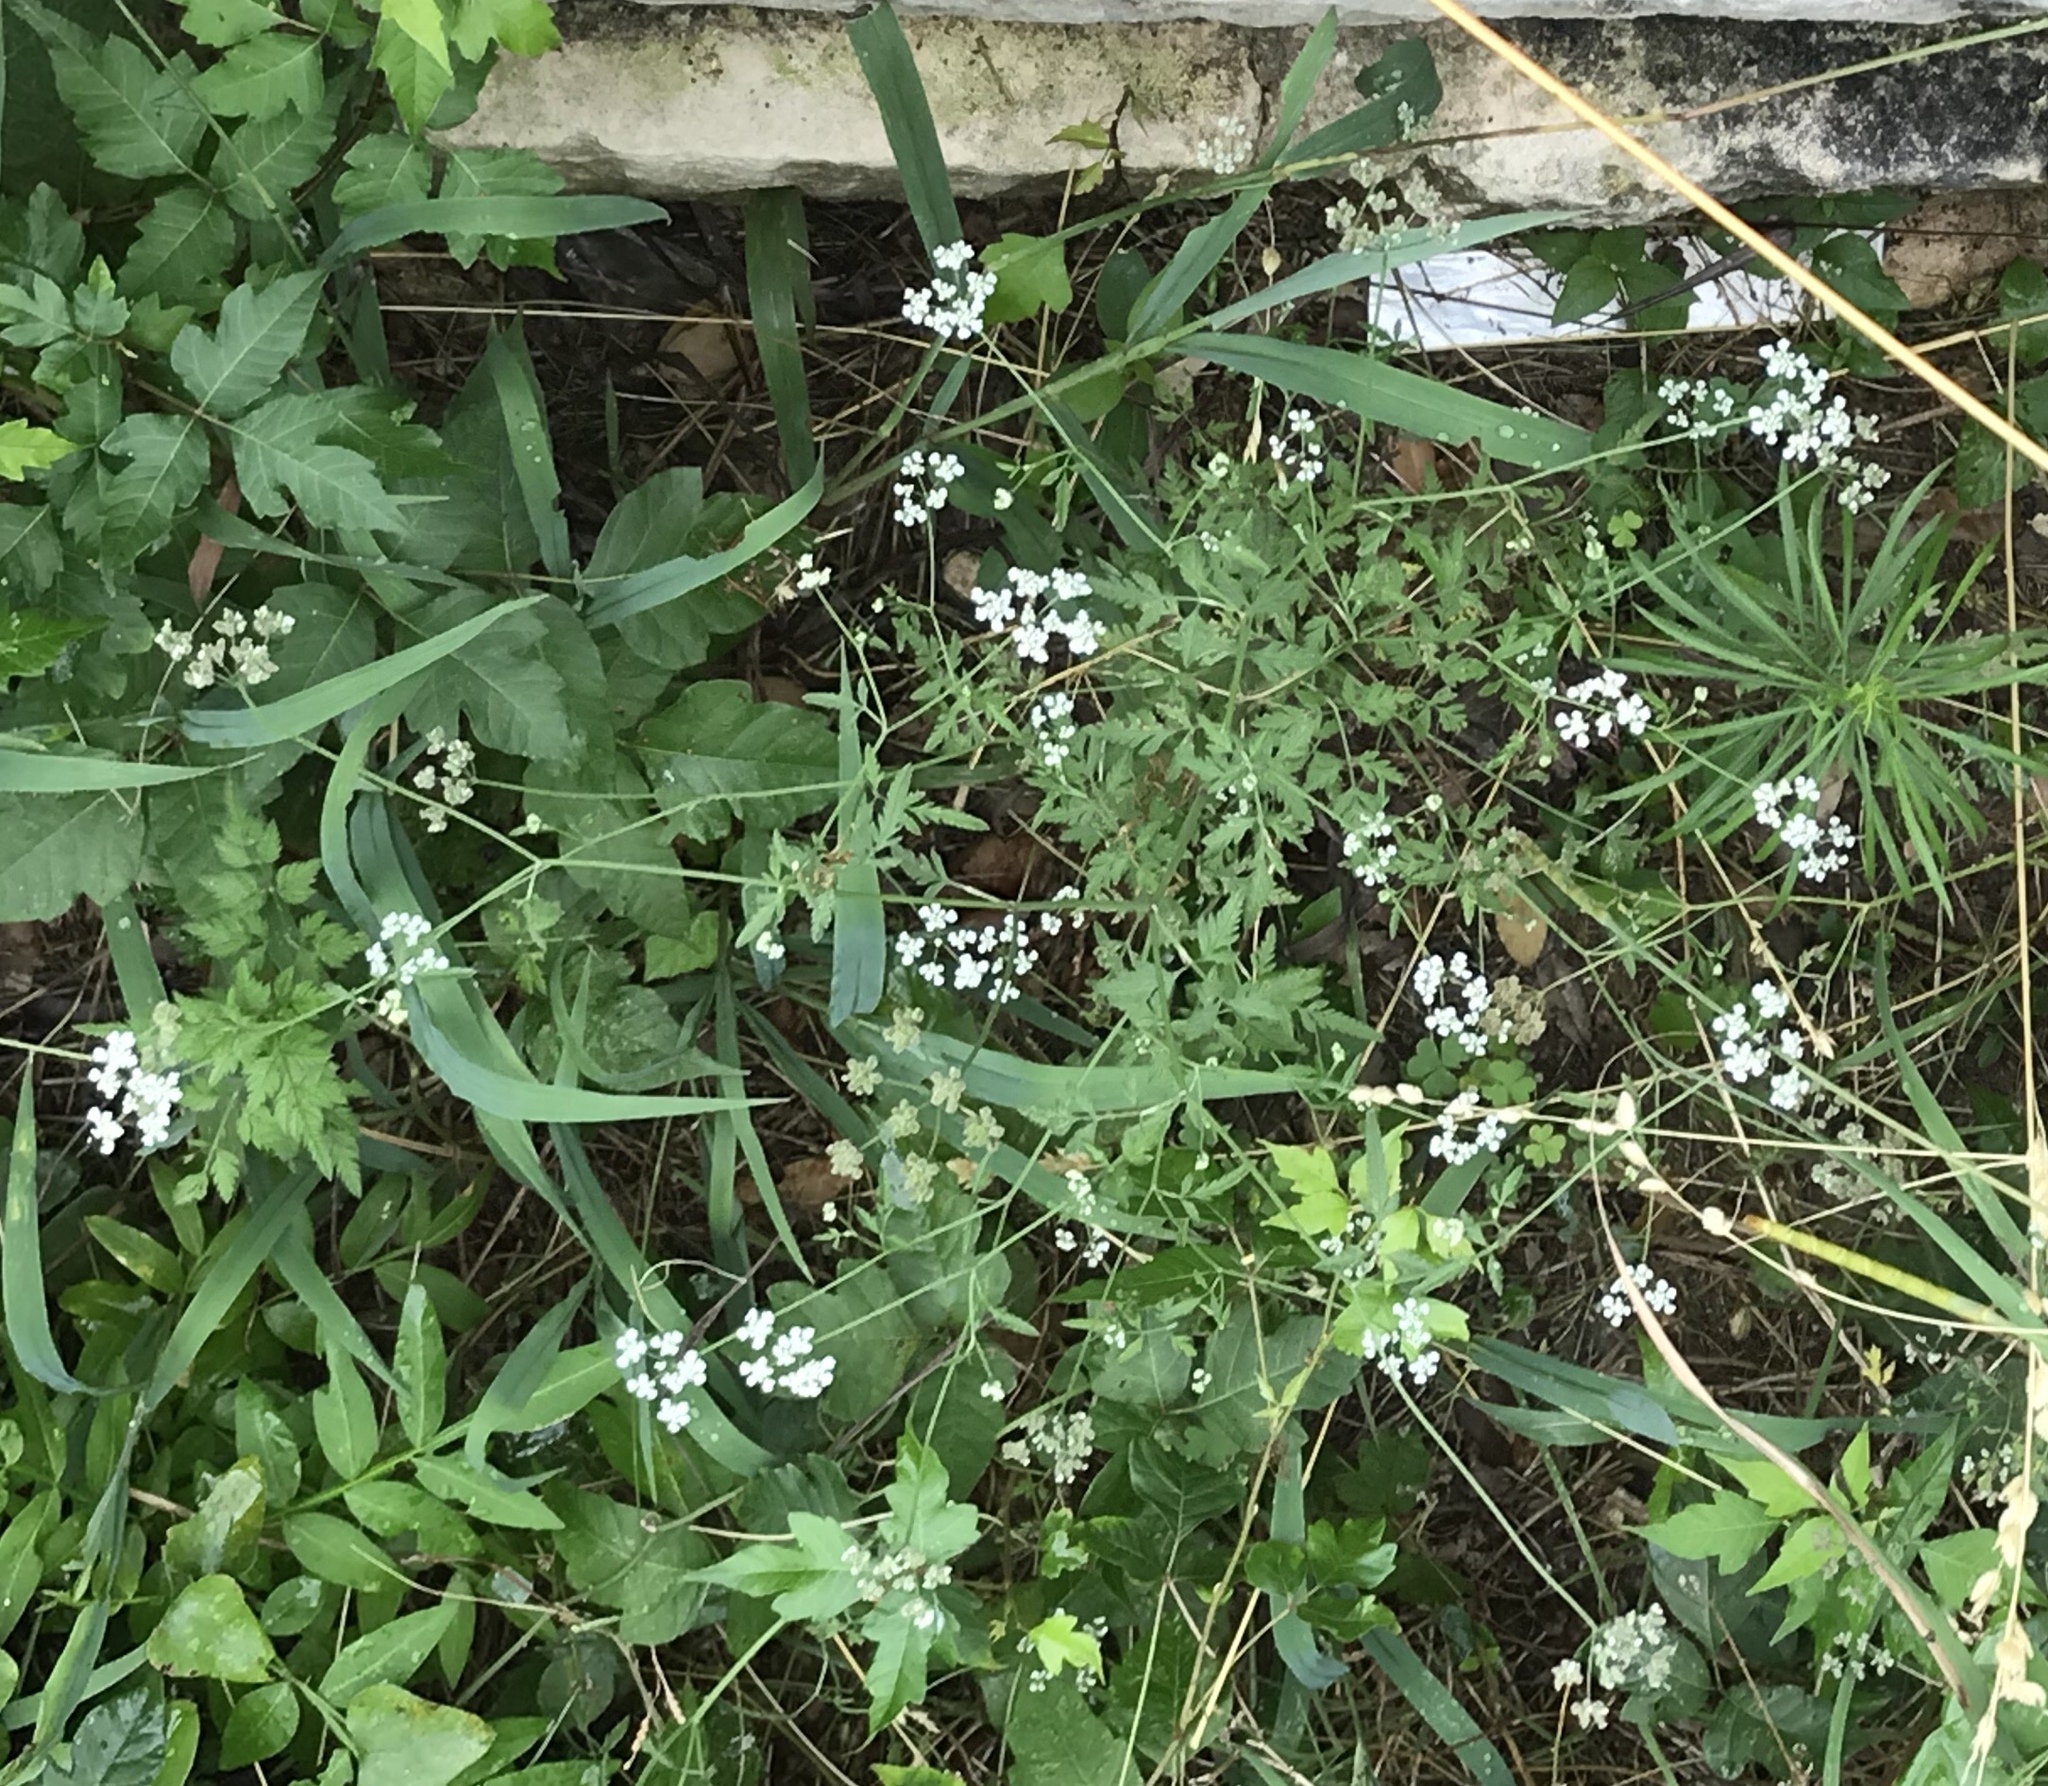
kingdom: Plantae
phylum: Tracheophyta
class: Magnoliopsida
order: Apiales
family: Apiaceae
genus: Torilis
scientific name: Torilis arvensis
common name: Spreading hedge-parsley
